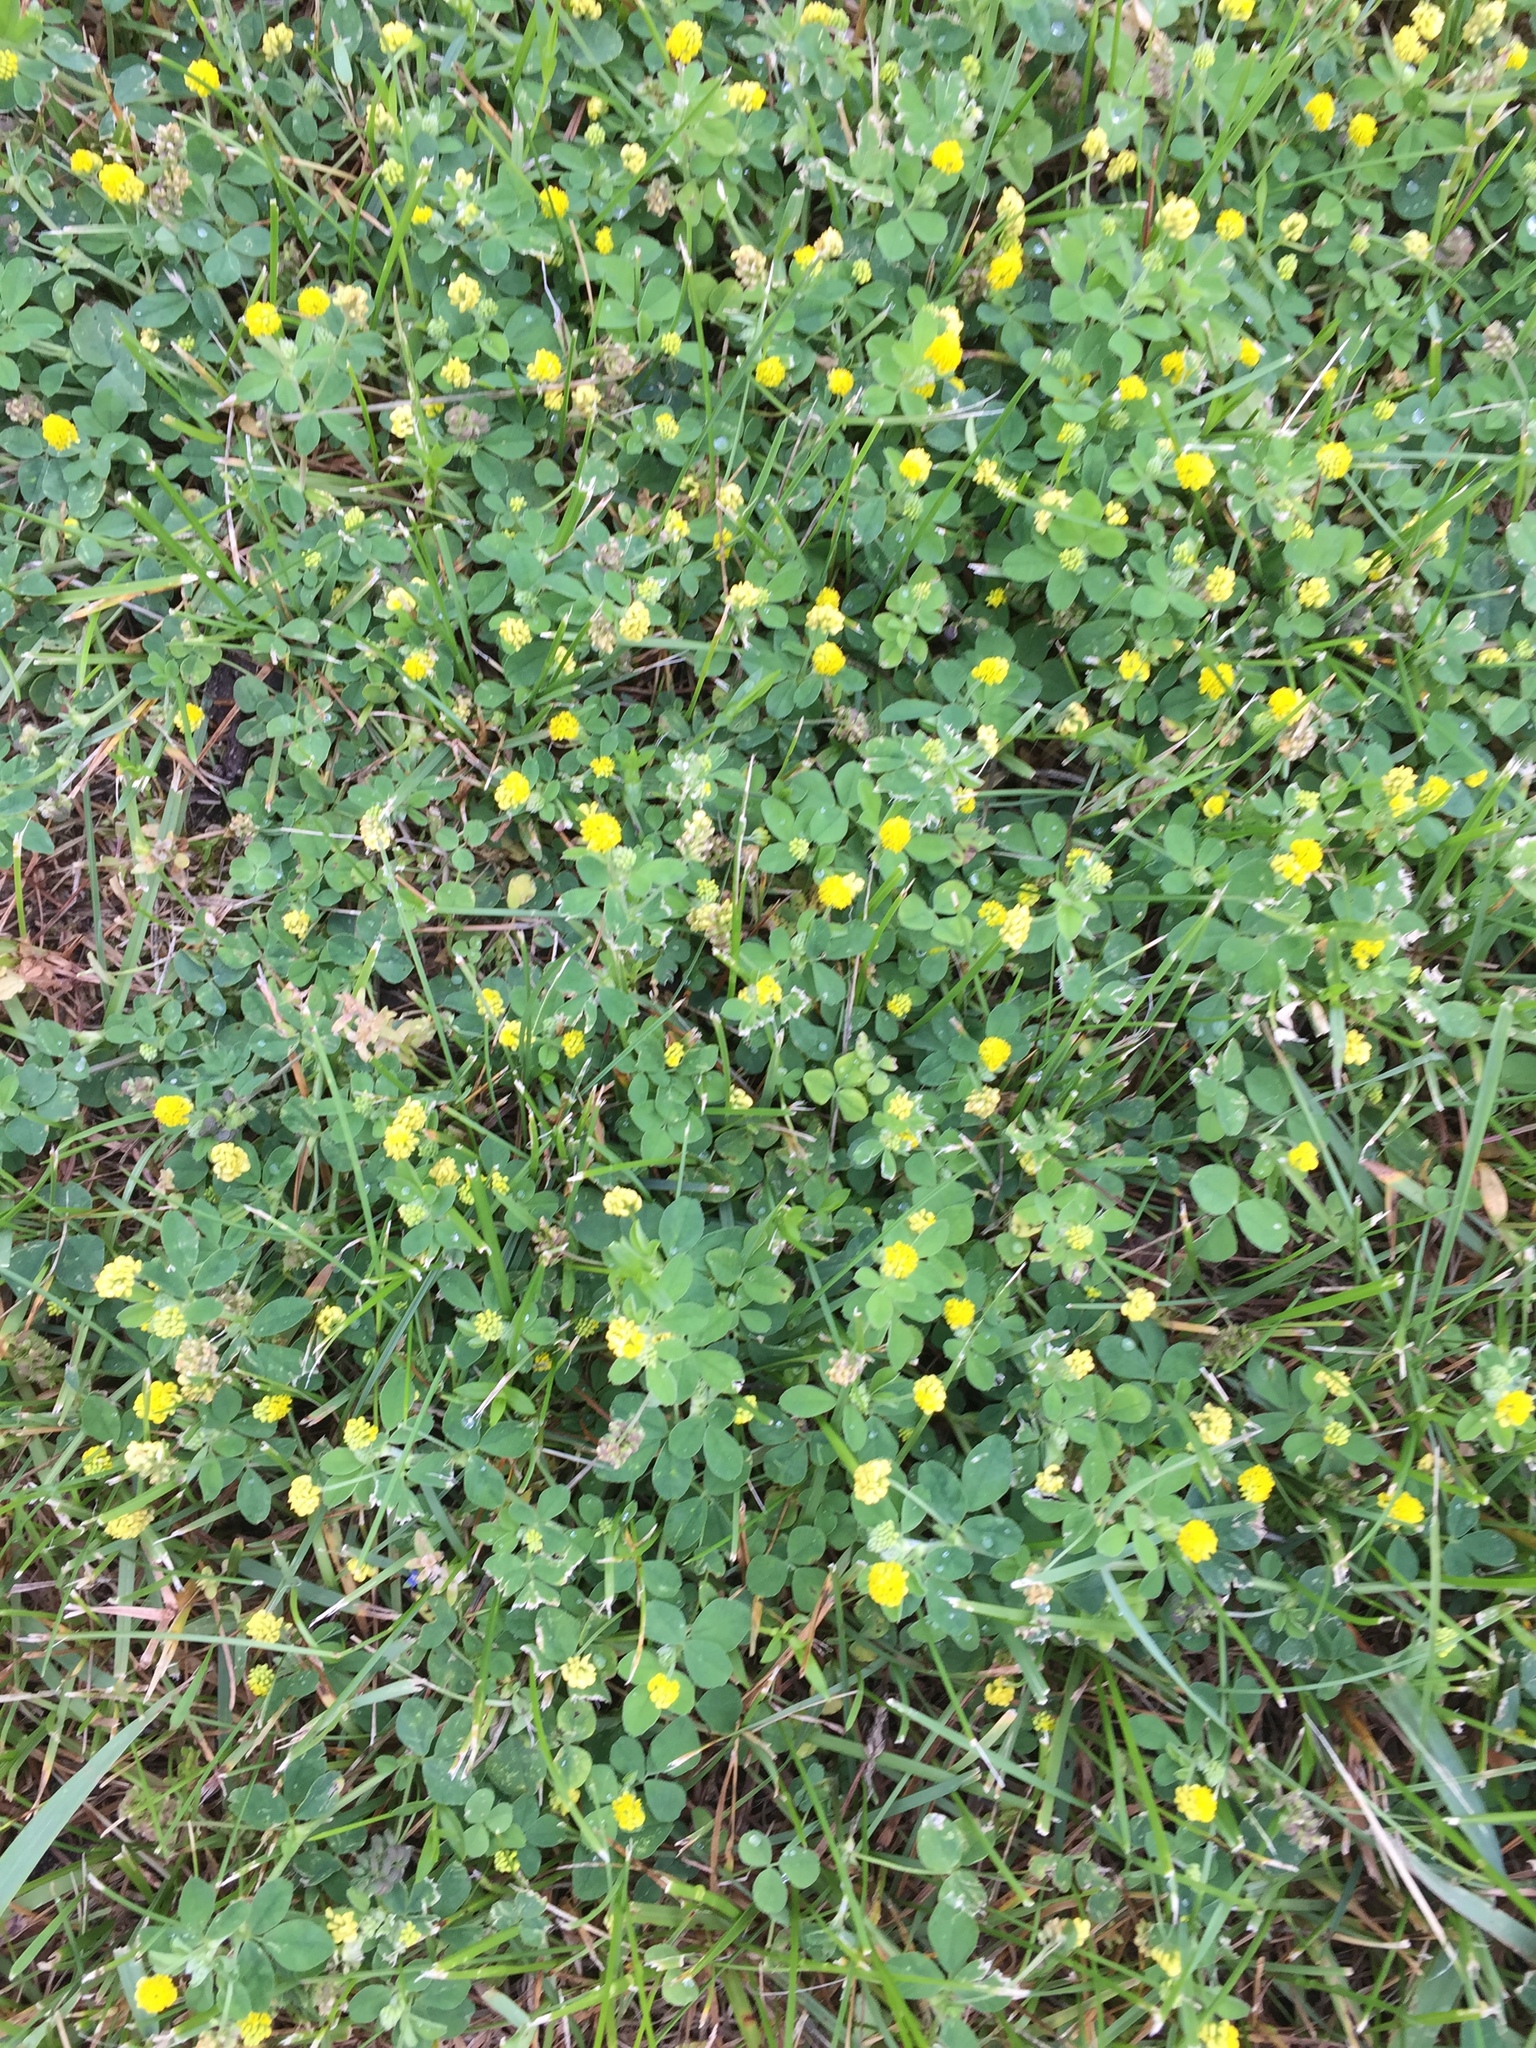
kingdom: Plantae
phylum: Tracheophyta
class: Magnoliopsida
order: Fabales
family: Fabaceae
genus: Medicago
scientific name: Medicago lupulina
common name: Black medick
